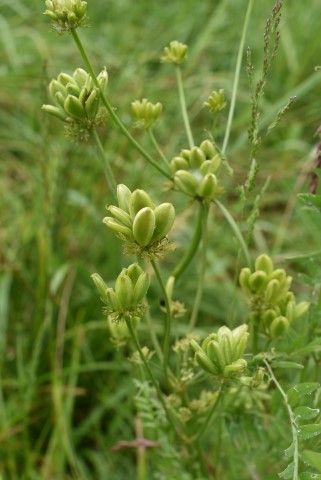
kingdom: Plantae
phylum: Tracheophyta
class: Magnoliopsida
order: Apiales
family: Apiaceae
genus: Lomatium
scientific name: Lomatium bradshawii
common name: Bradshaw's desert-parsley
